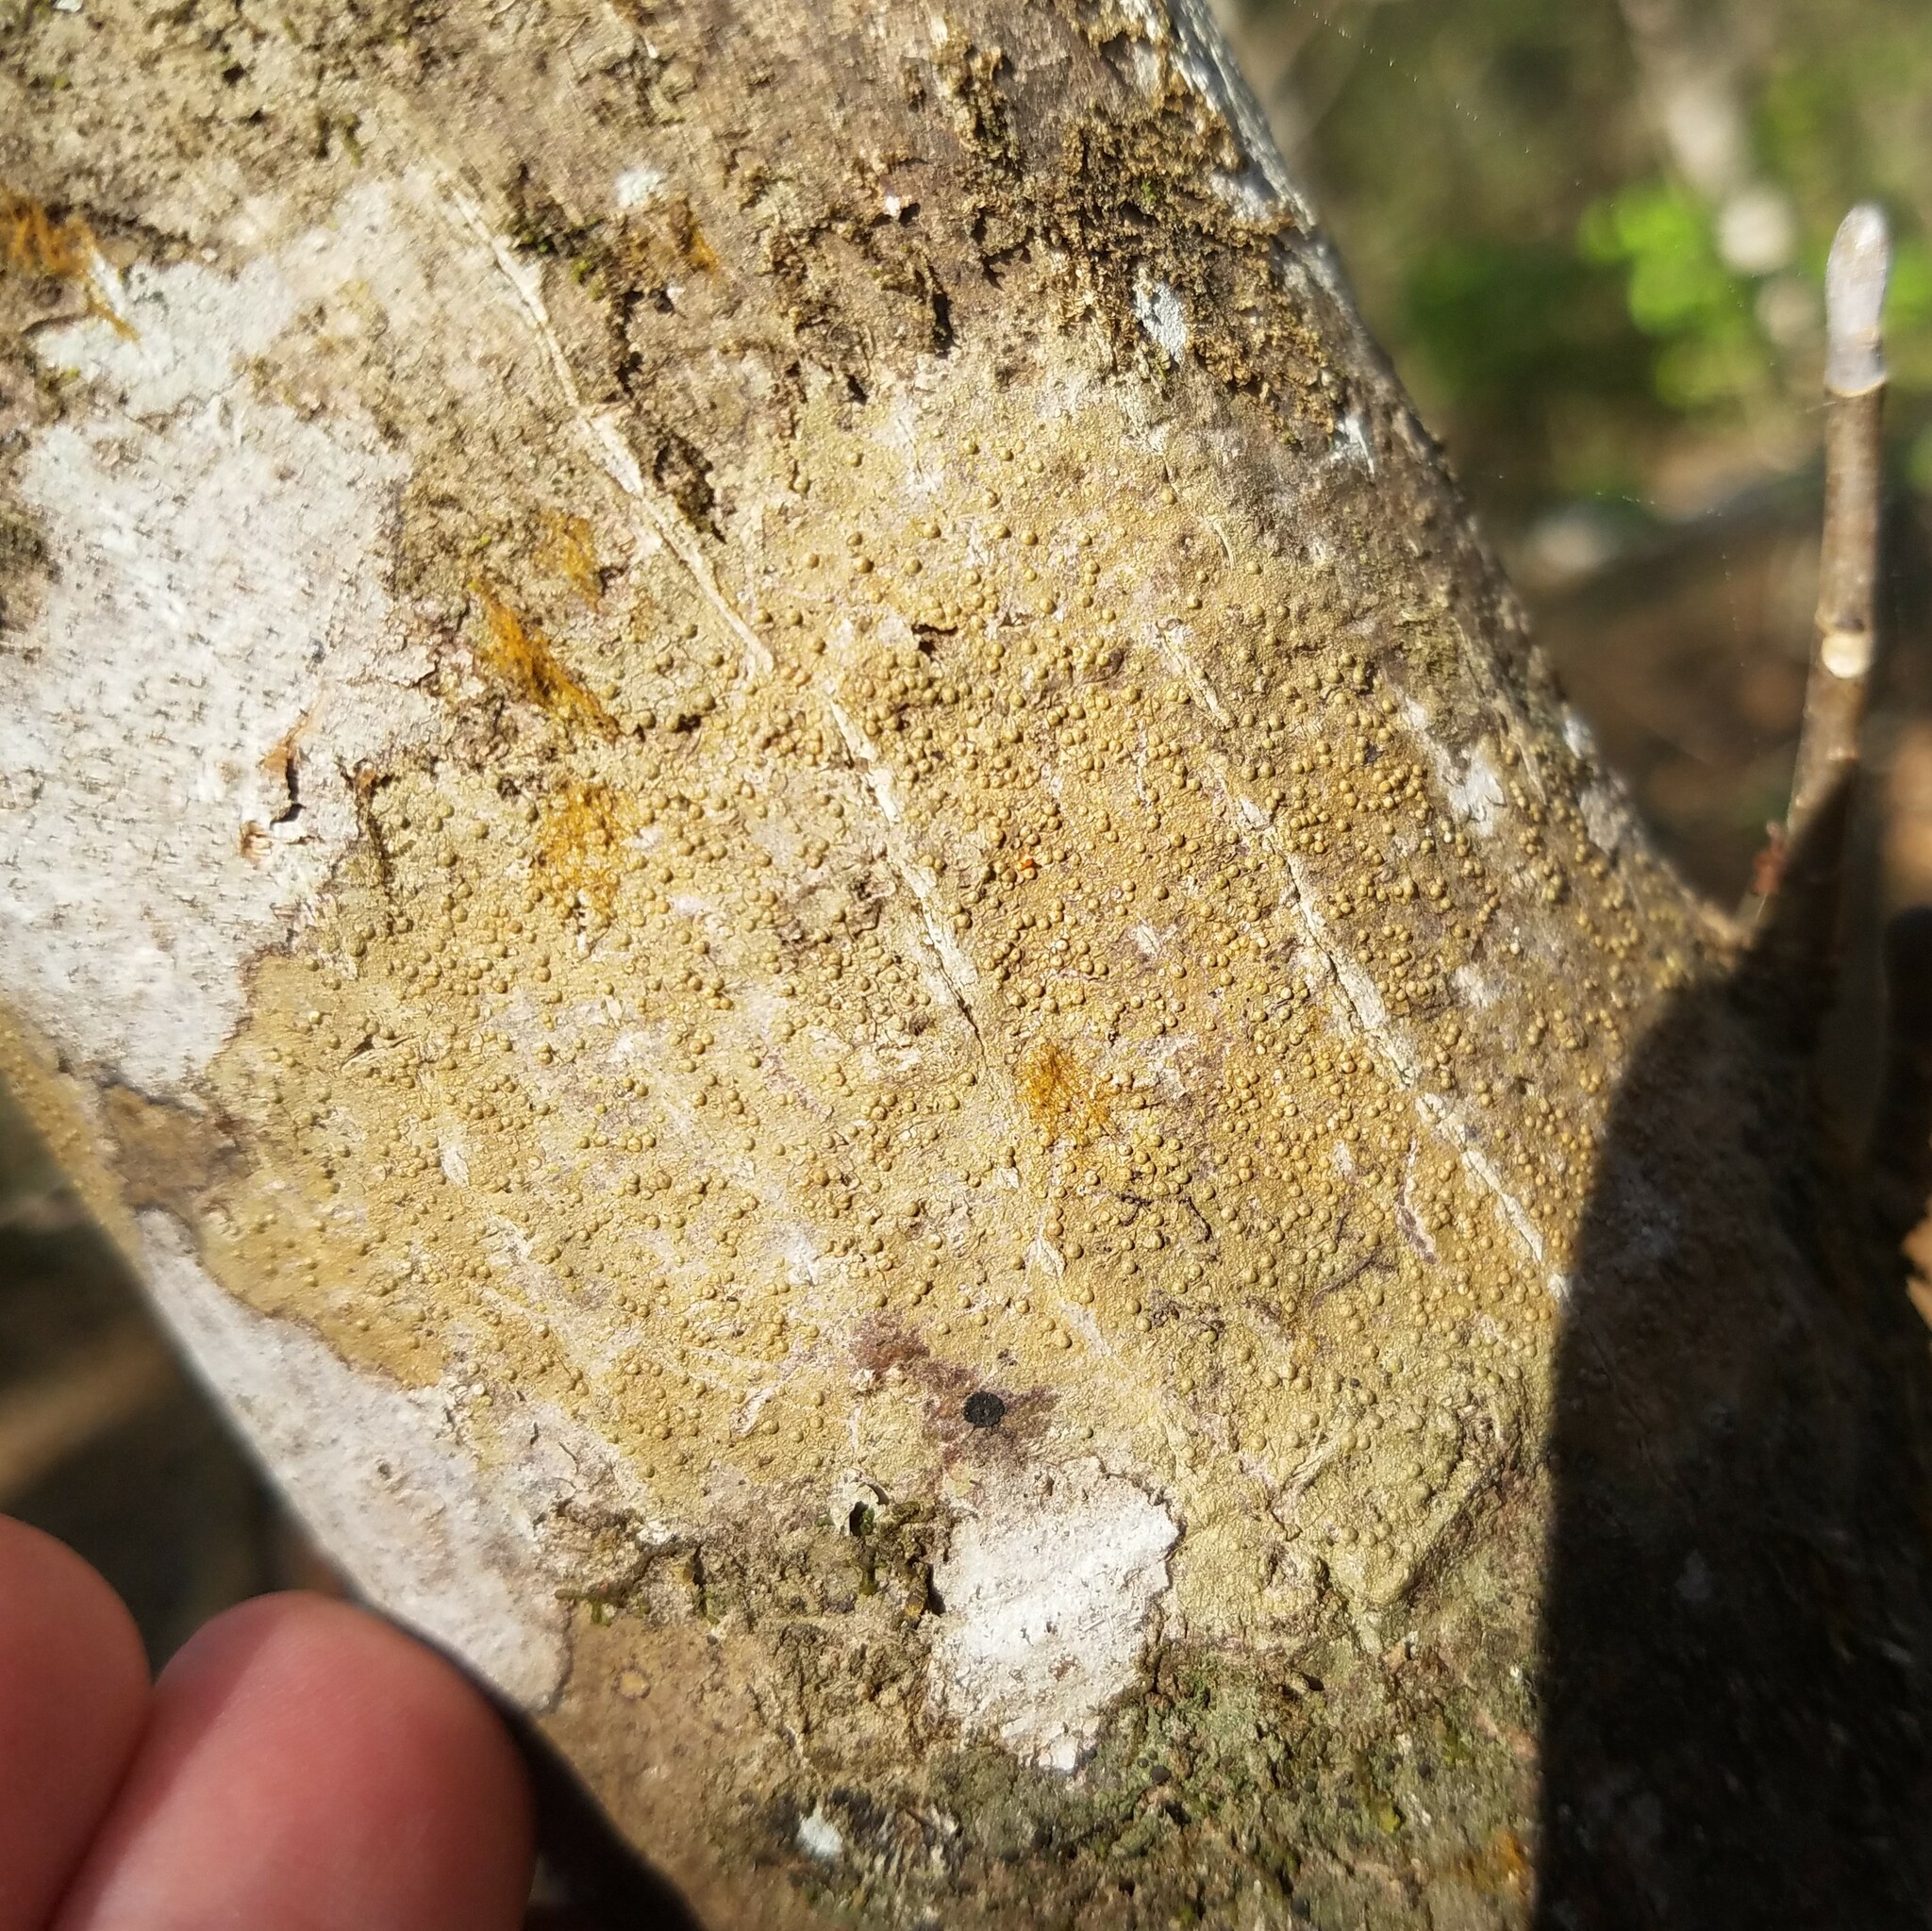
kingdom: Fungi
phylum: Ascomycota
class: Lecanoromycetes
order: Pertusariales
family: Pertusariaceae
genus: Porina
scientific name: Porina heterospora
